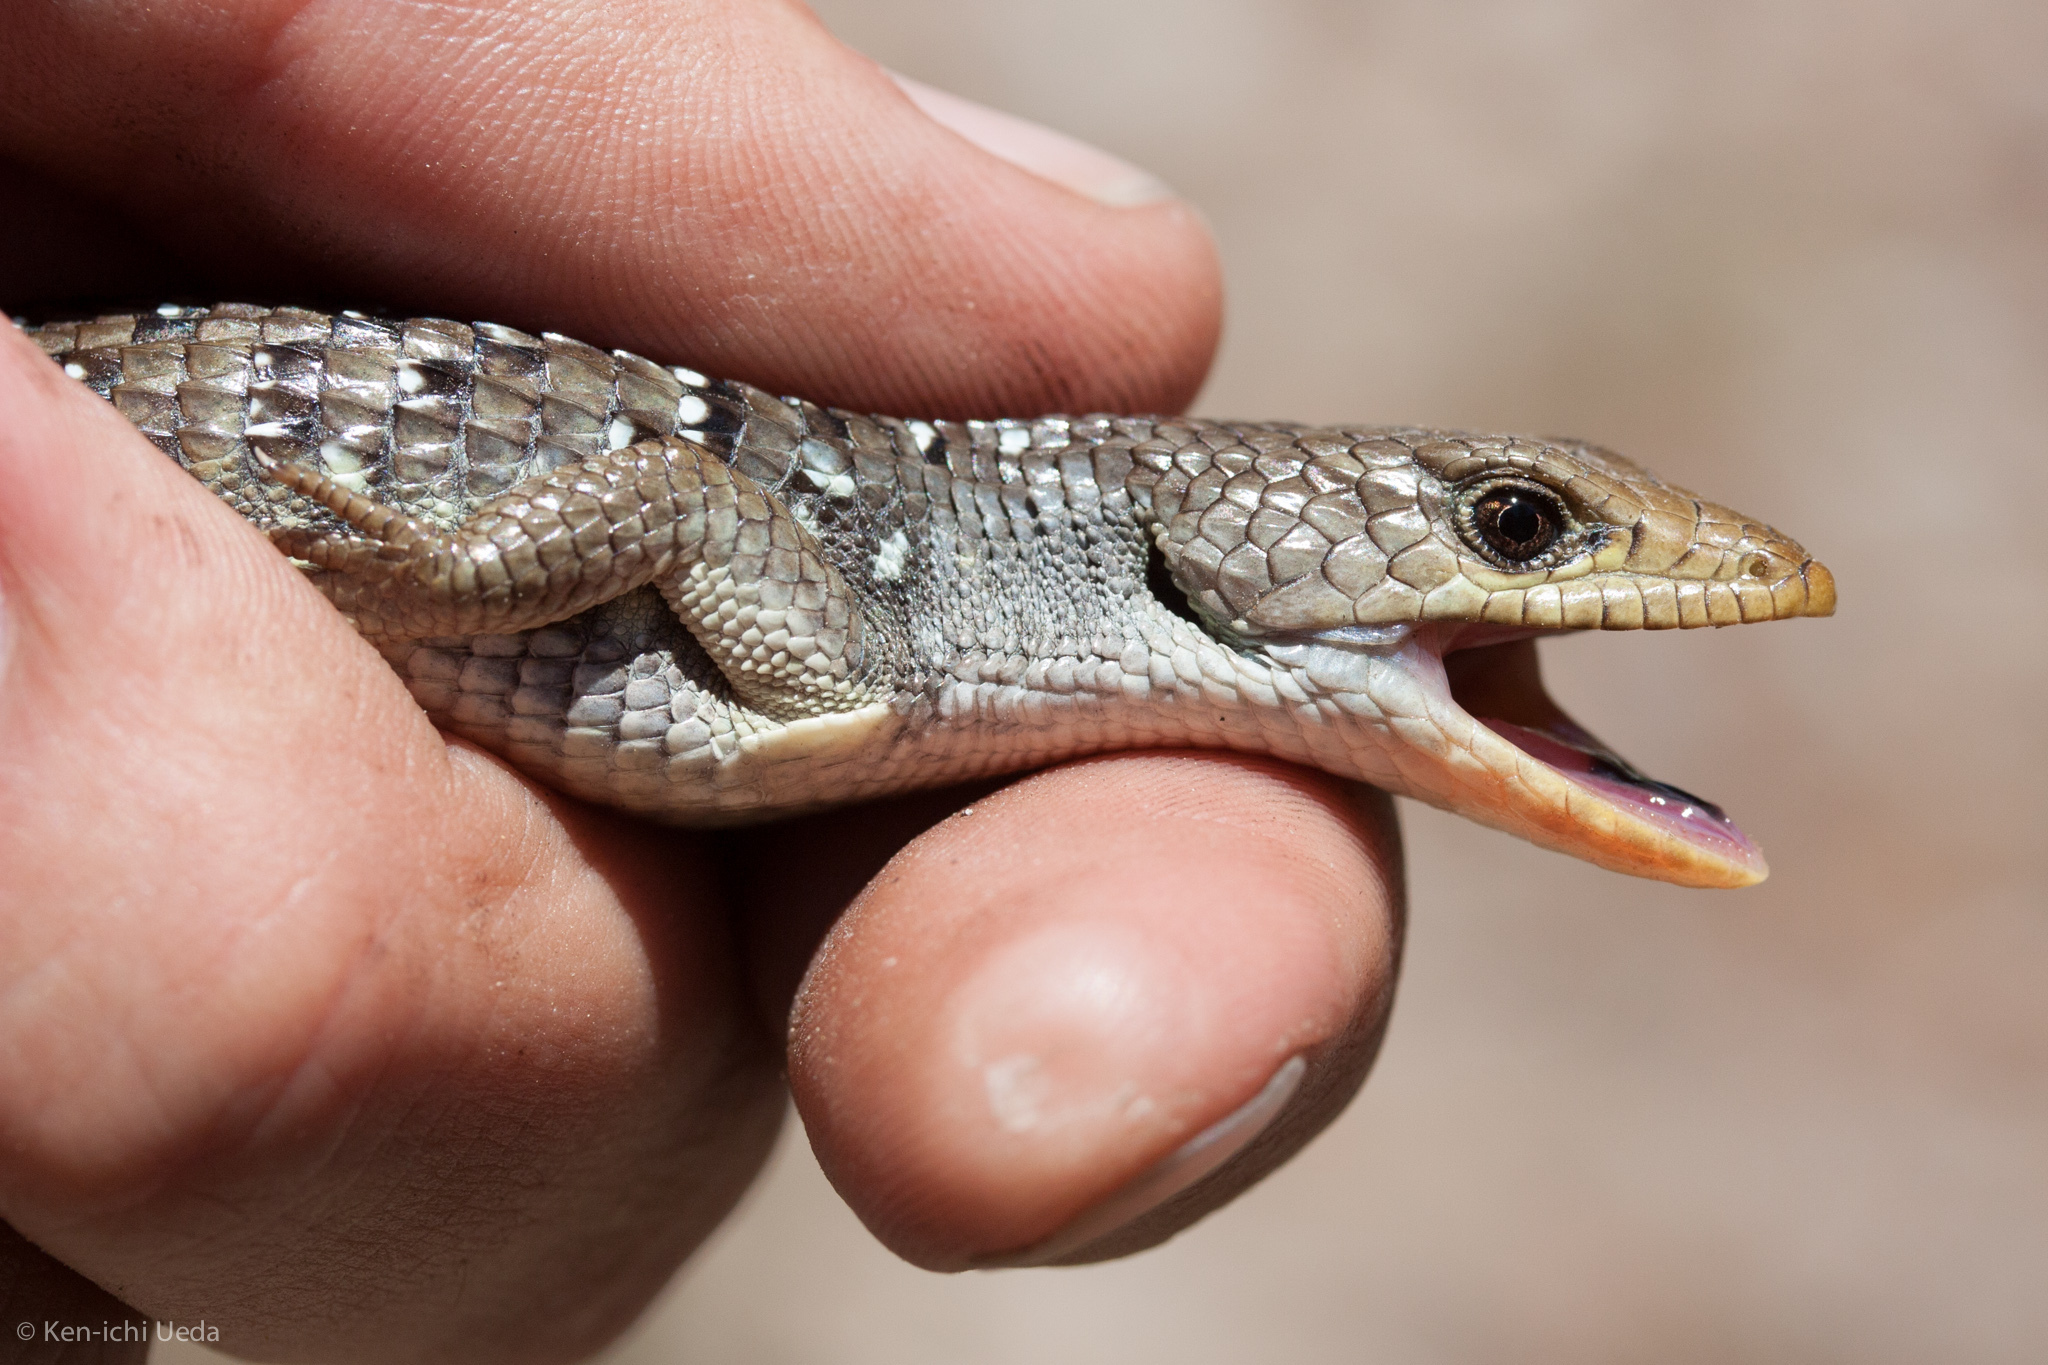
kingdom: Animalia
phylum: Chordata
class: Squamata
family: Anguidae
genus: Elgaria
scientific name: Elgaria coerulea
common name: Northern alligator lizard
